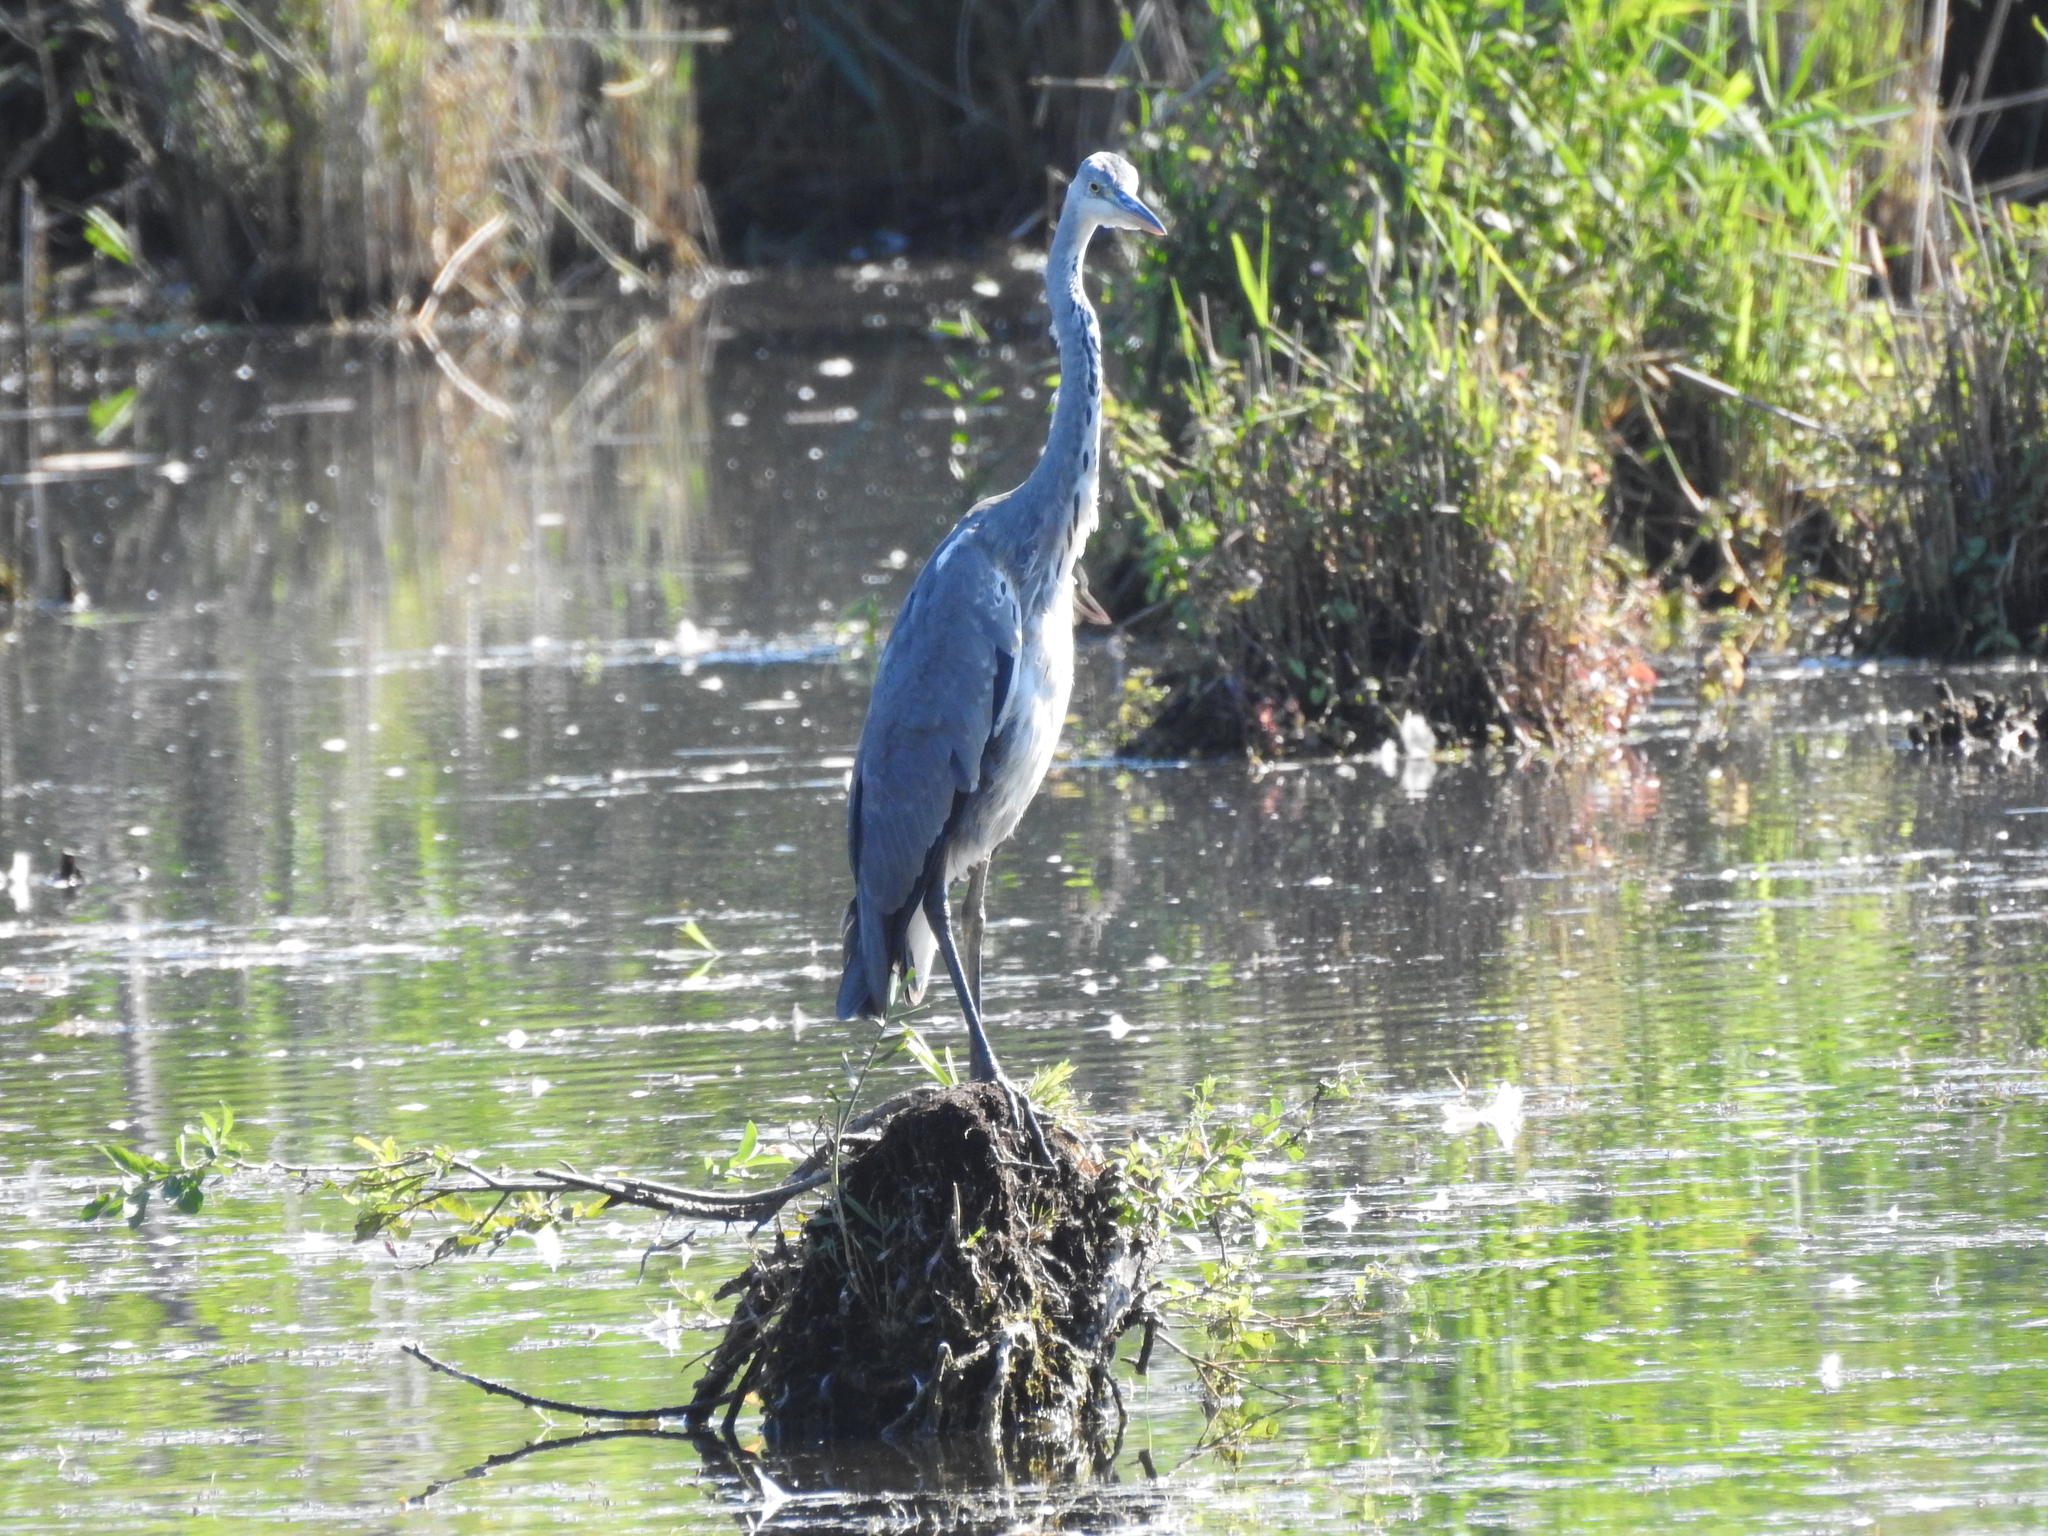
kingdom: Animalia
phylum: Chordata
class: Aves
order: Pelecaniformes
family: Ardeidae
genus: Ardea
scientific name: Ardea cinerea
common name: Grey heron
